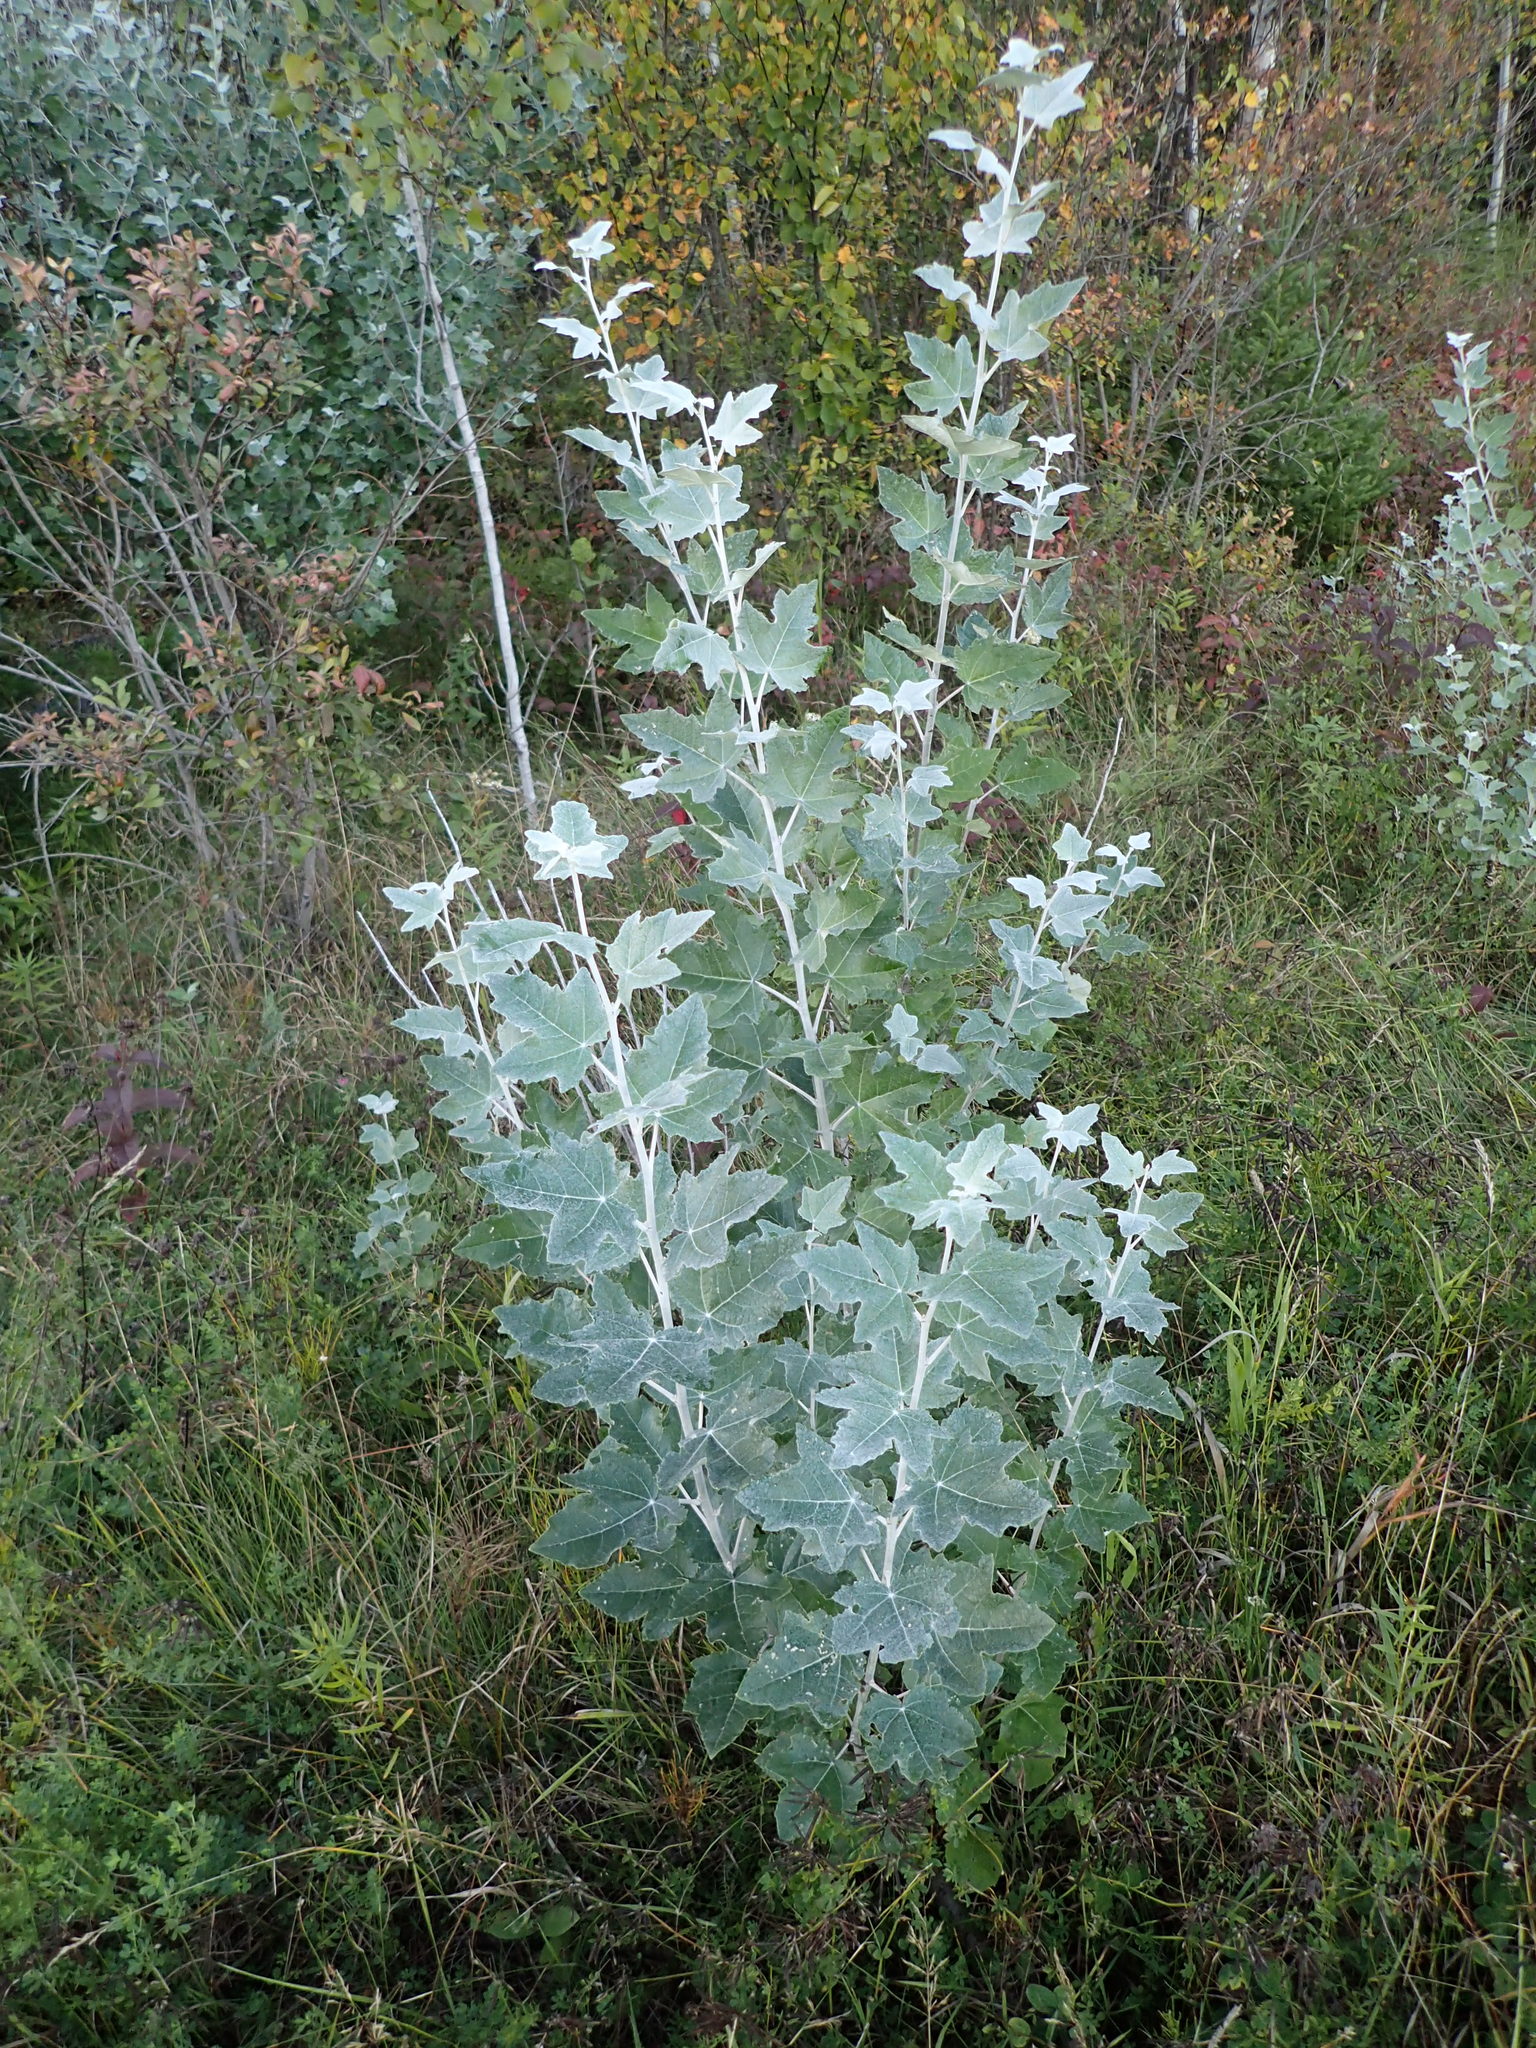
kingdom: Plantae
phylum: Tracheophyta
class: Magnoliopsida
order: Malpighiales
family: Salicaceae
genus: Populus
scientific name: Populus alba
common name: White poplar
